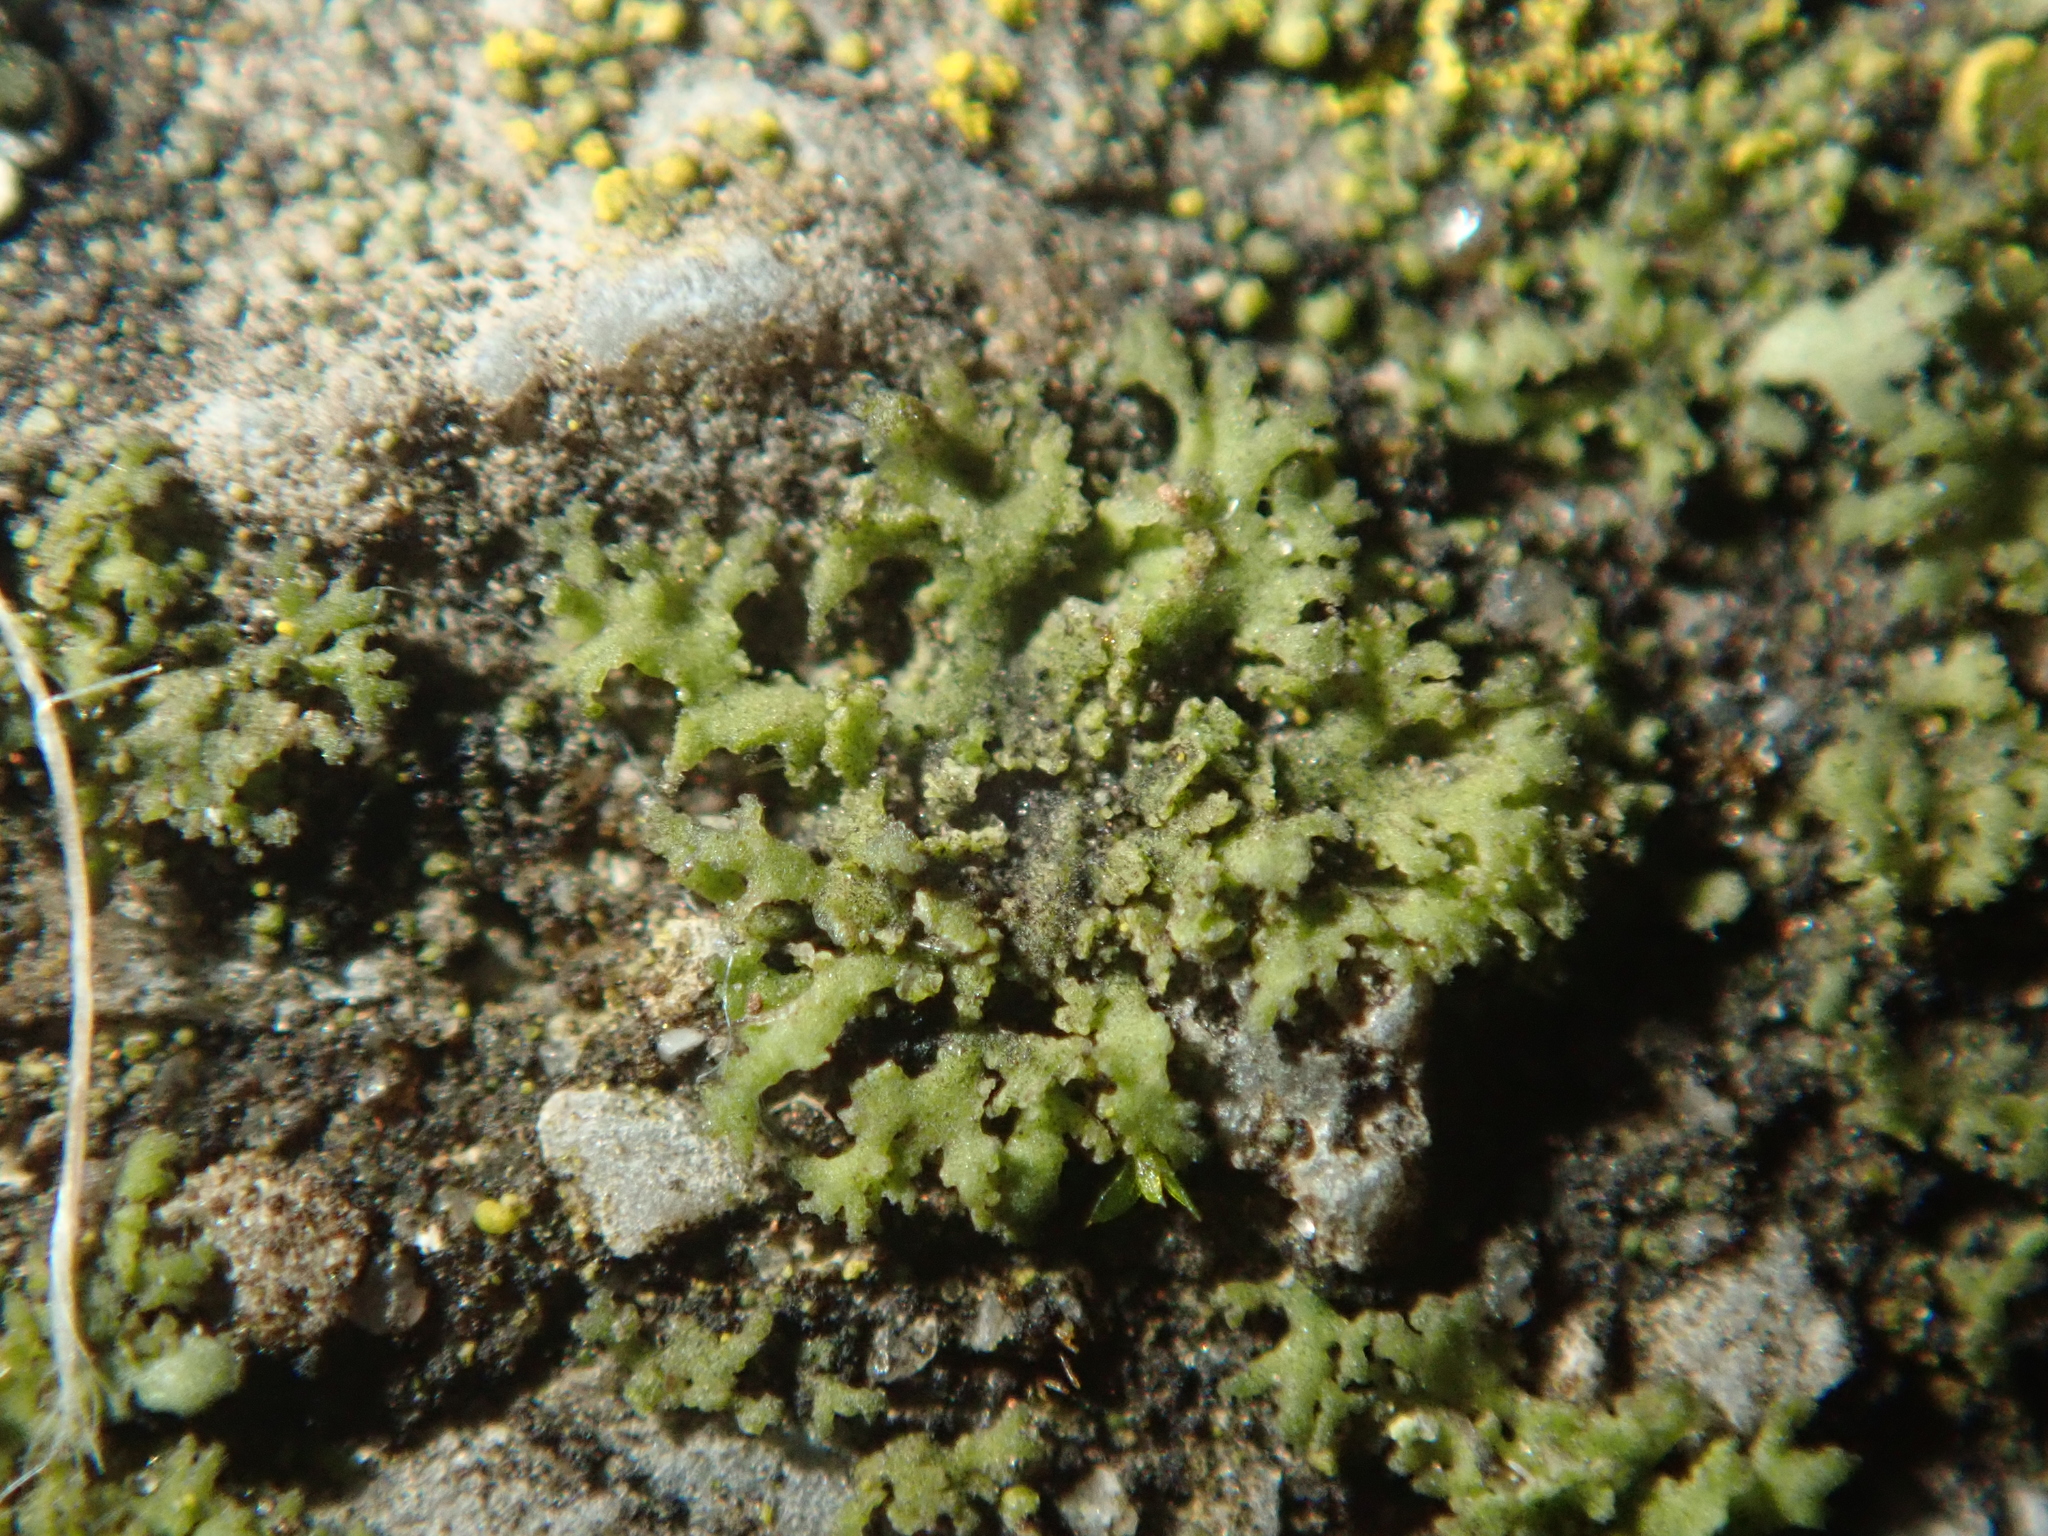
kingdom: Fungi
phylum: Ascomycota
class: Lecanoromycetes
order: Caliciales
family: Physciaceae
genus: Physciella
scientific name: Physciella nigricans
